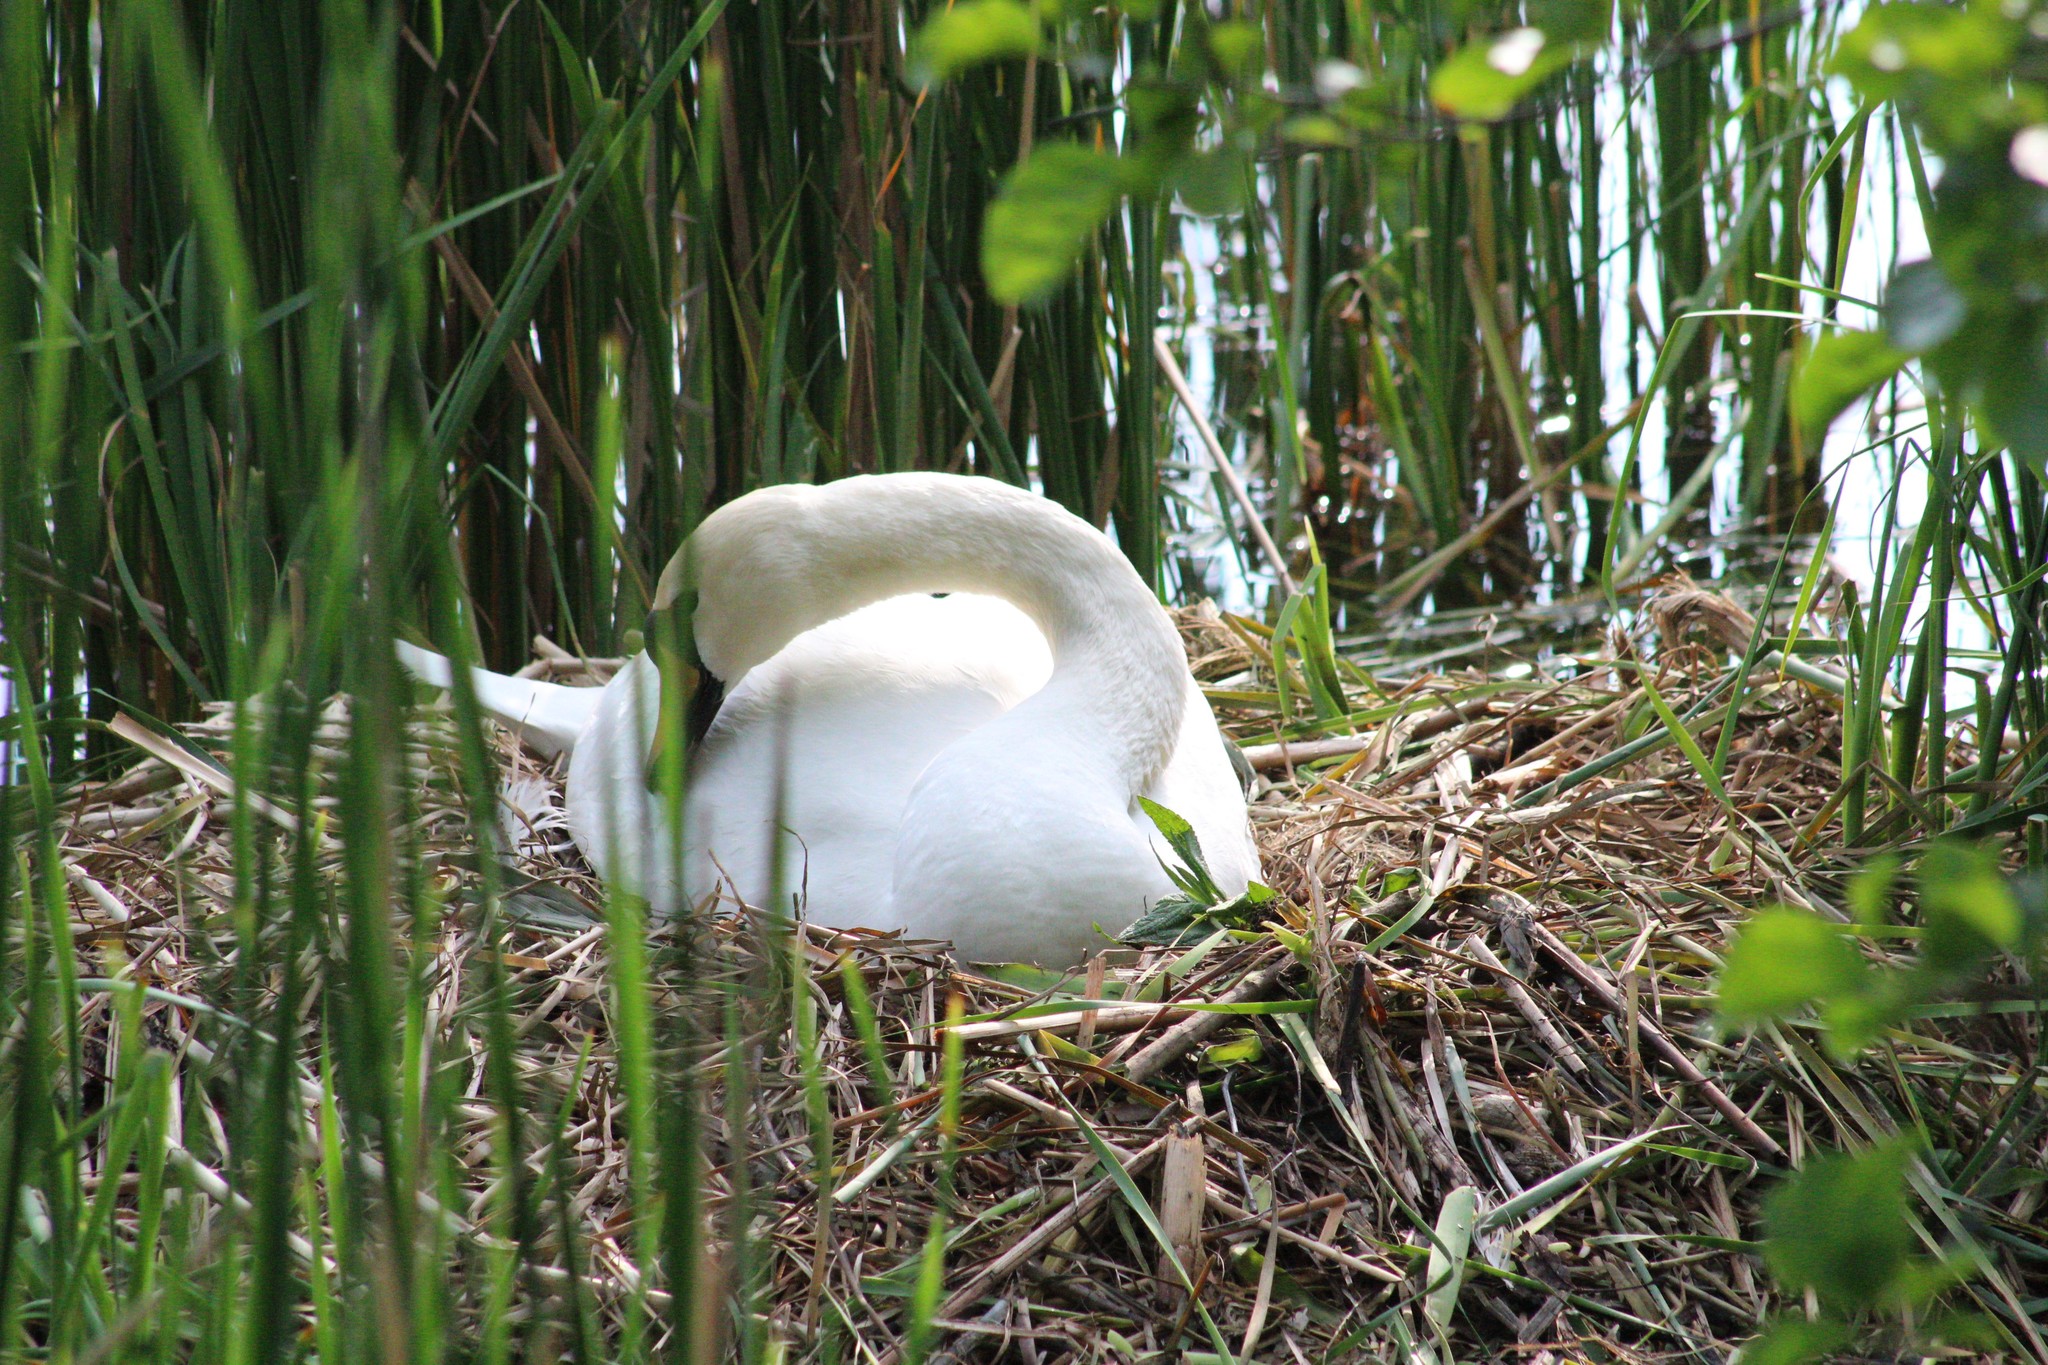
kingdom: Animalia
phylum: Chordata
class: Aves
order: Anseriformes
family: Anatidae
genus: Cygnus
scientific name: Cygnus olor
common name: Mute swan
